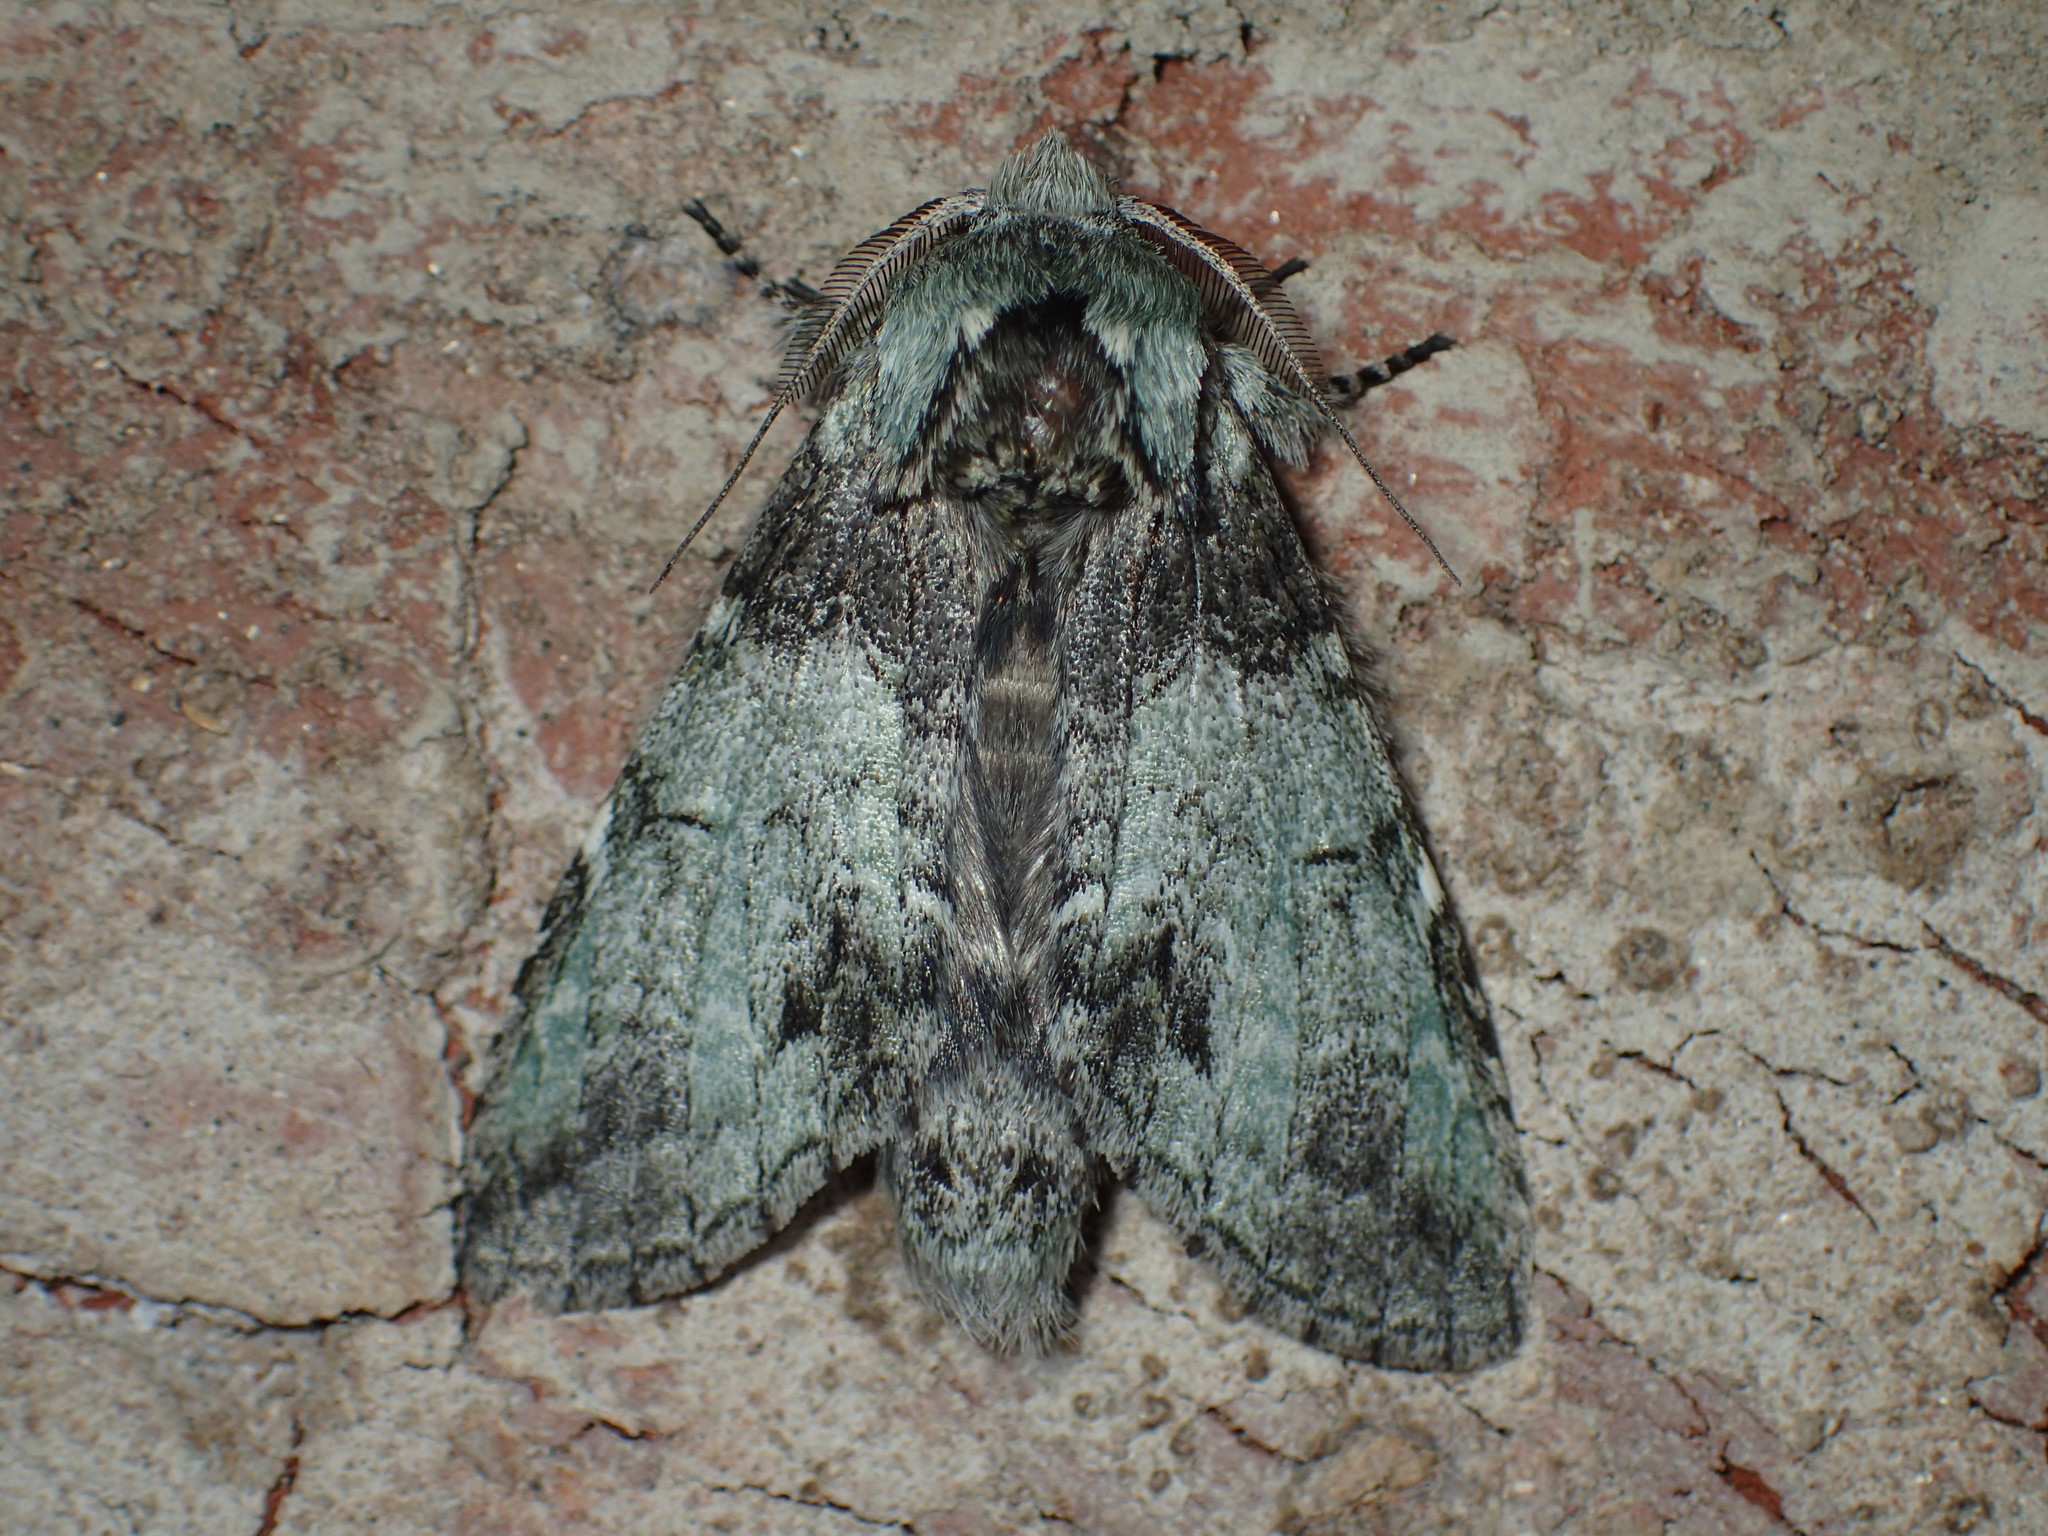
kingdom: Animalia
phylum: Arthropoda
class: Insecta
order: Lepidoptera
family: Notodontidae
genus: Macrurocampa
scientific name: Macrurocampa marthesia
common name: Mottled prominent
